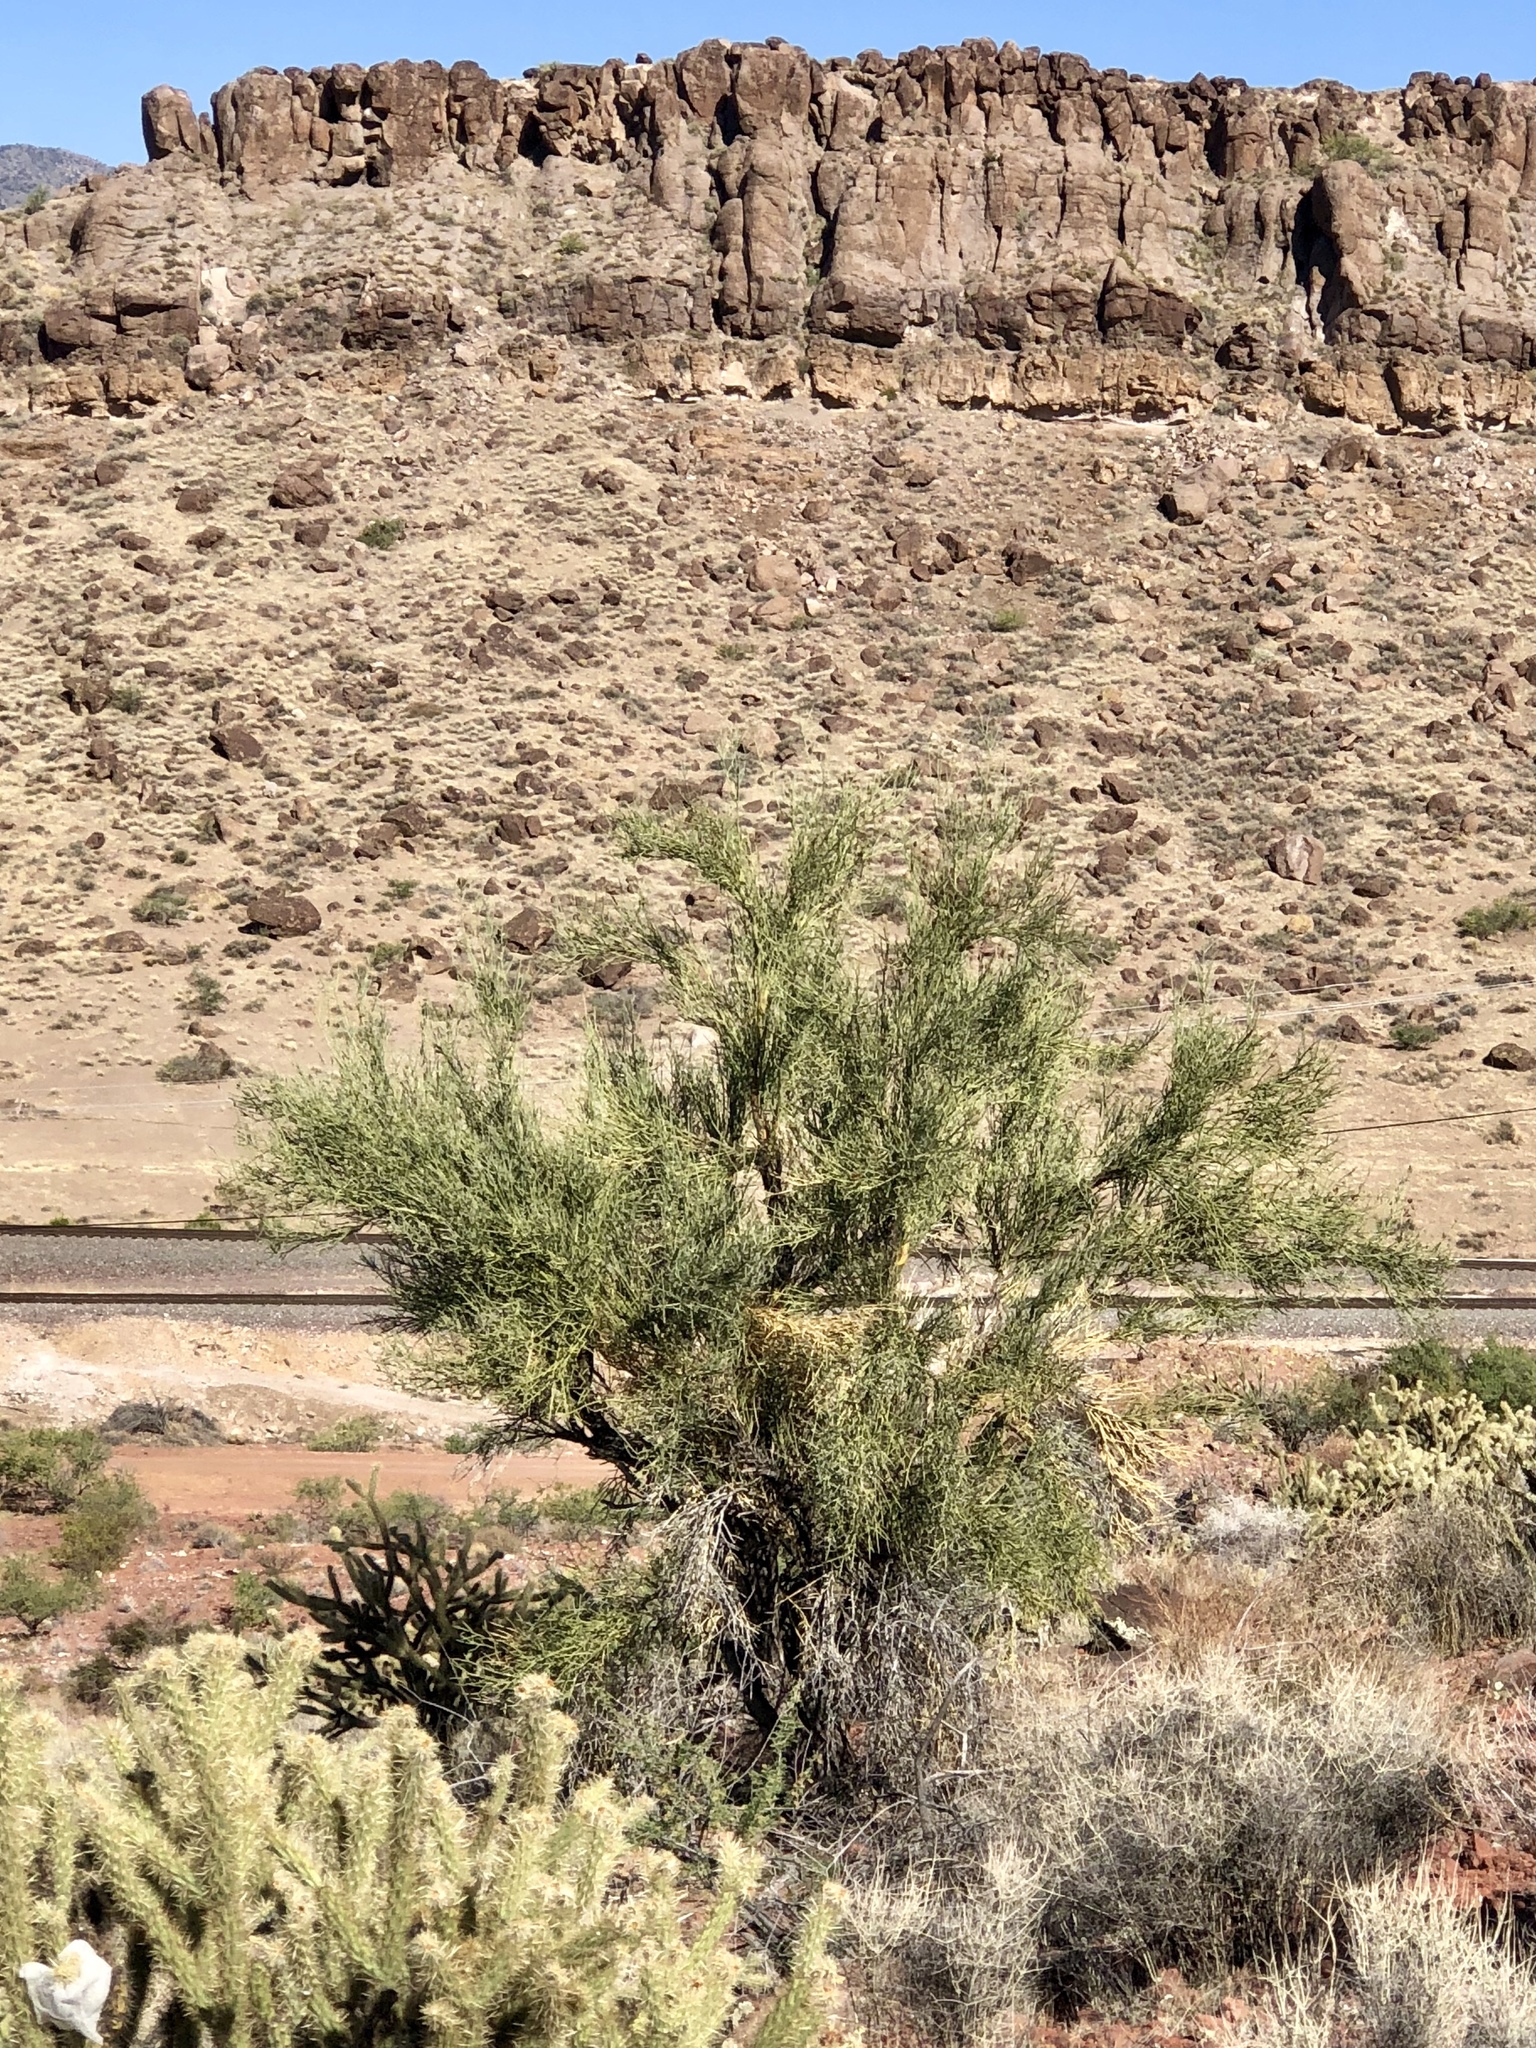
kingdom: Plantae
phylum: Tracheophyta
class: Magnoliopsida
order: Celastrales
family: Celastraceae
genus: Canotia
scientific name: Canotia holacantha
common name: Crucifixion thorns
